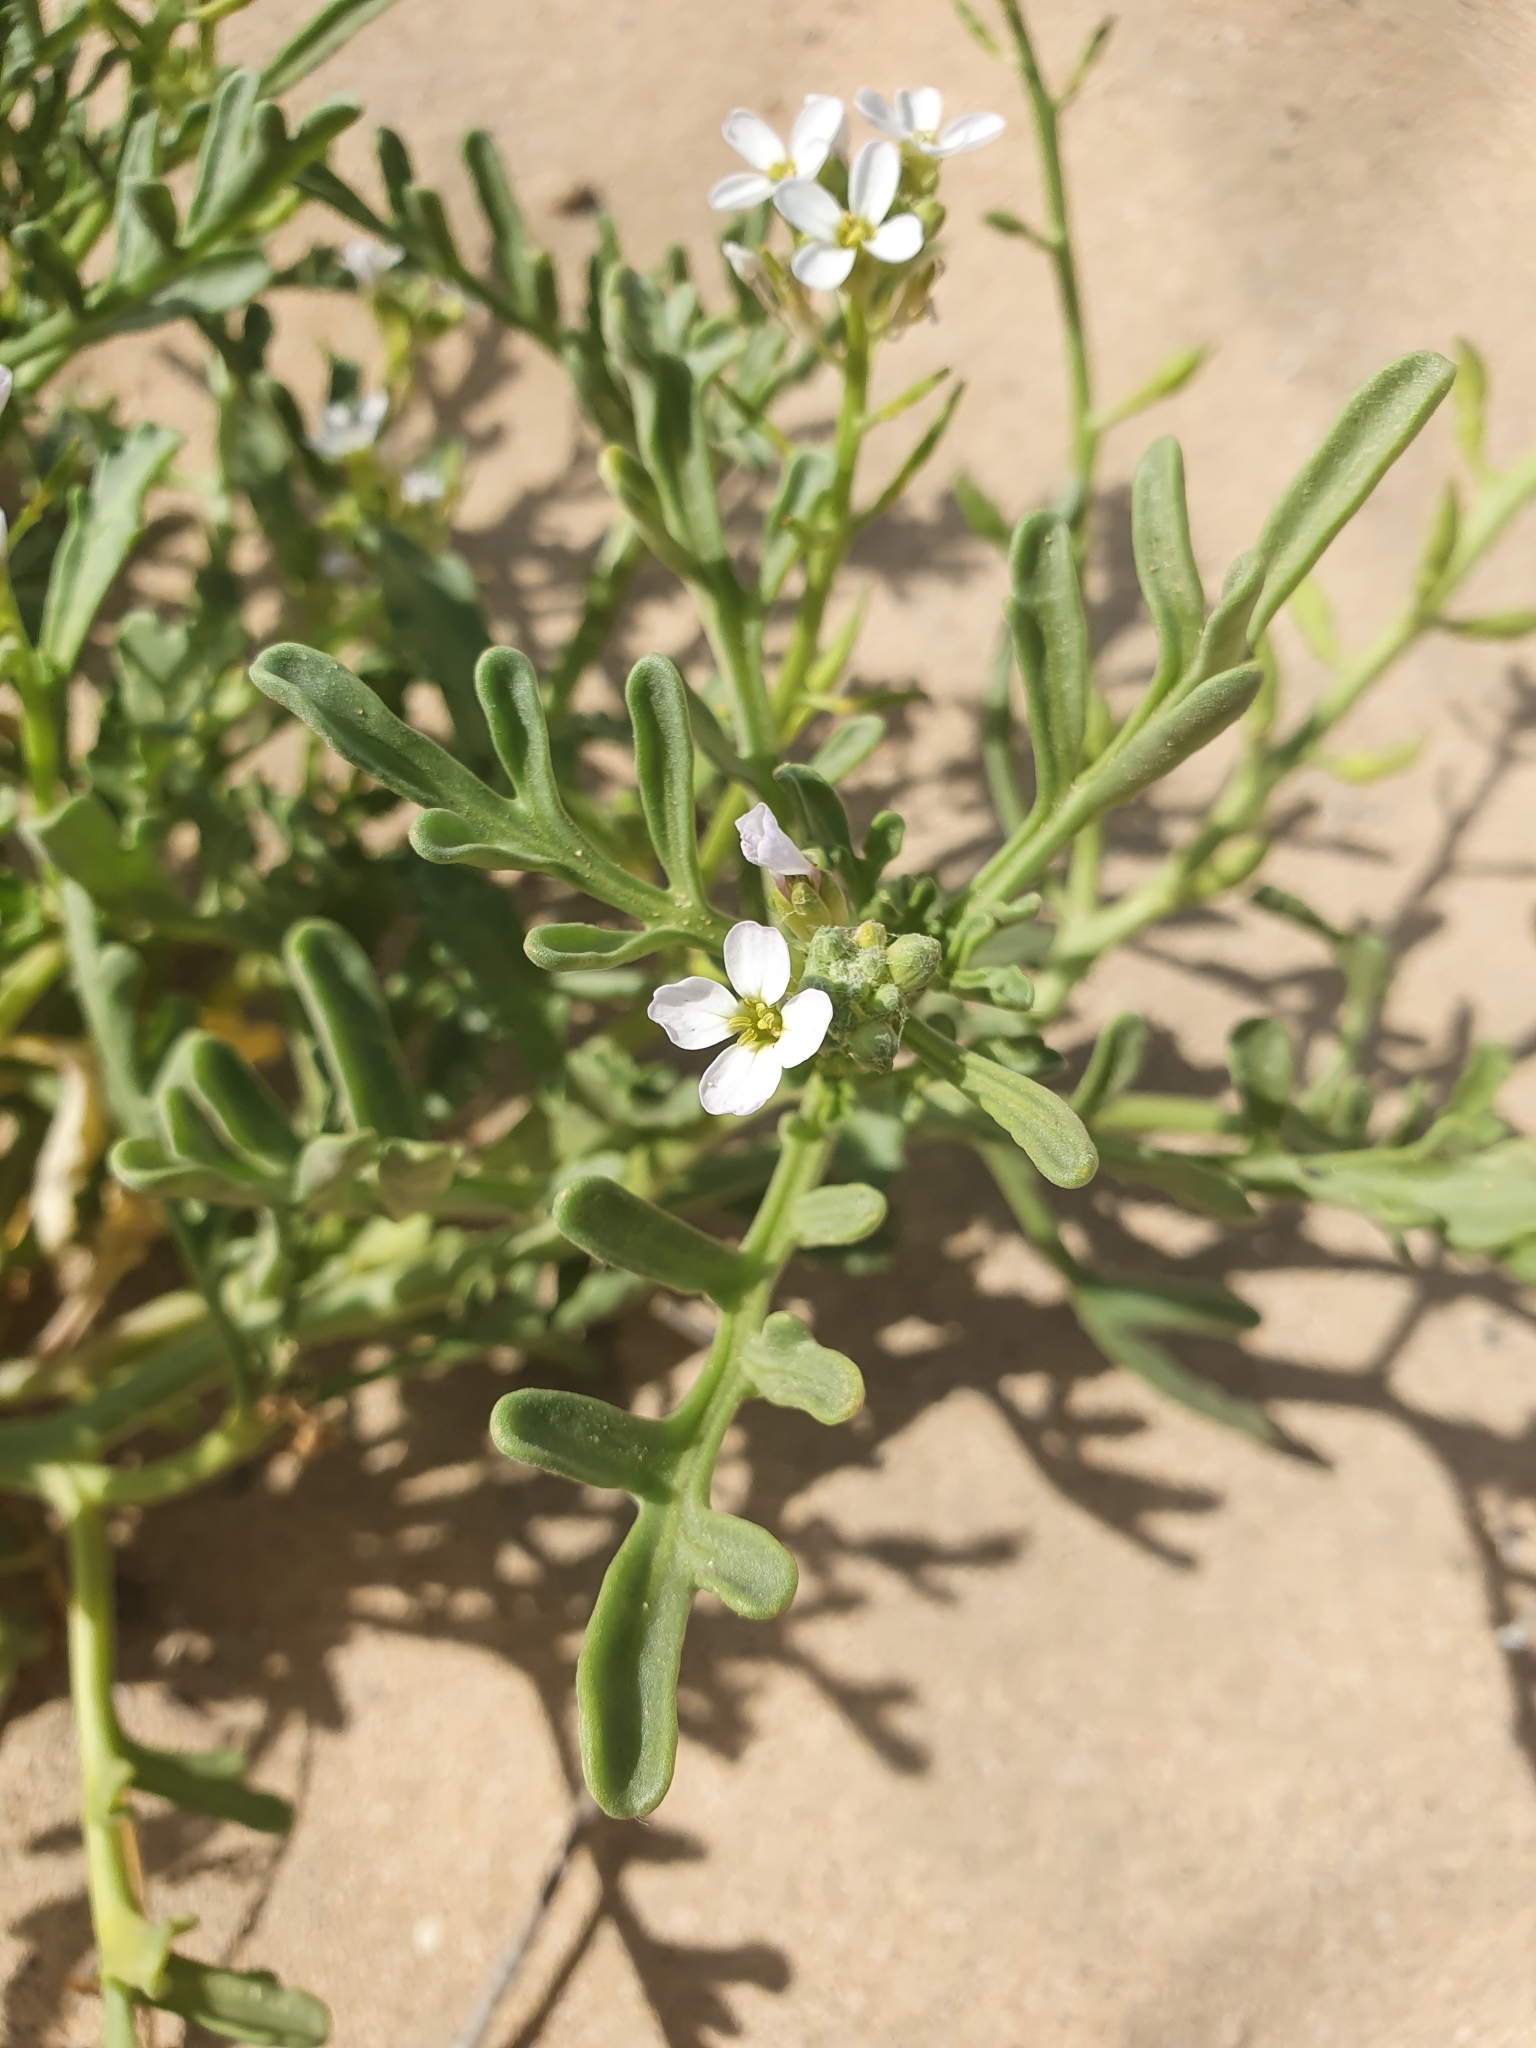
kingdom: Plantae
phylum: Tracheophyta
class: Magnoliopsida
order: Brassicales
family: Brassicaceae
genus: Cakile
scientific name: Cakile maritima
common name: Sea rocket
